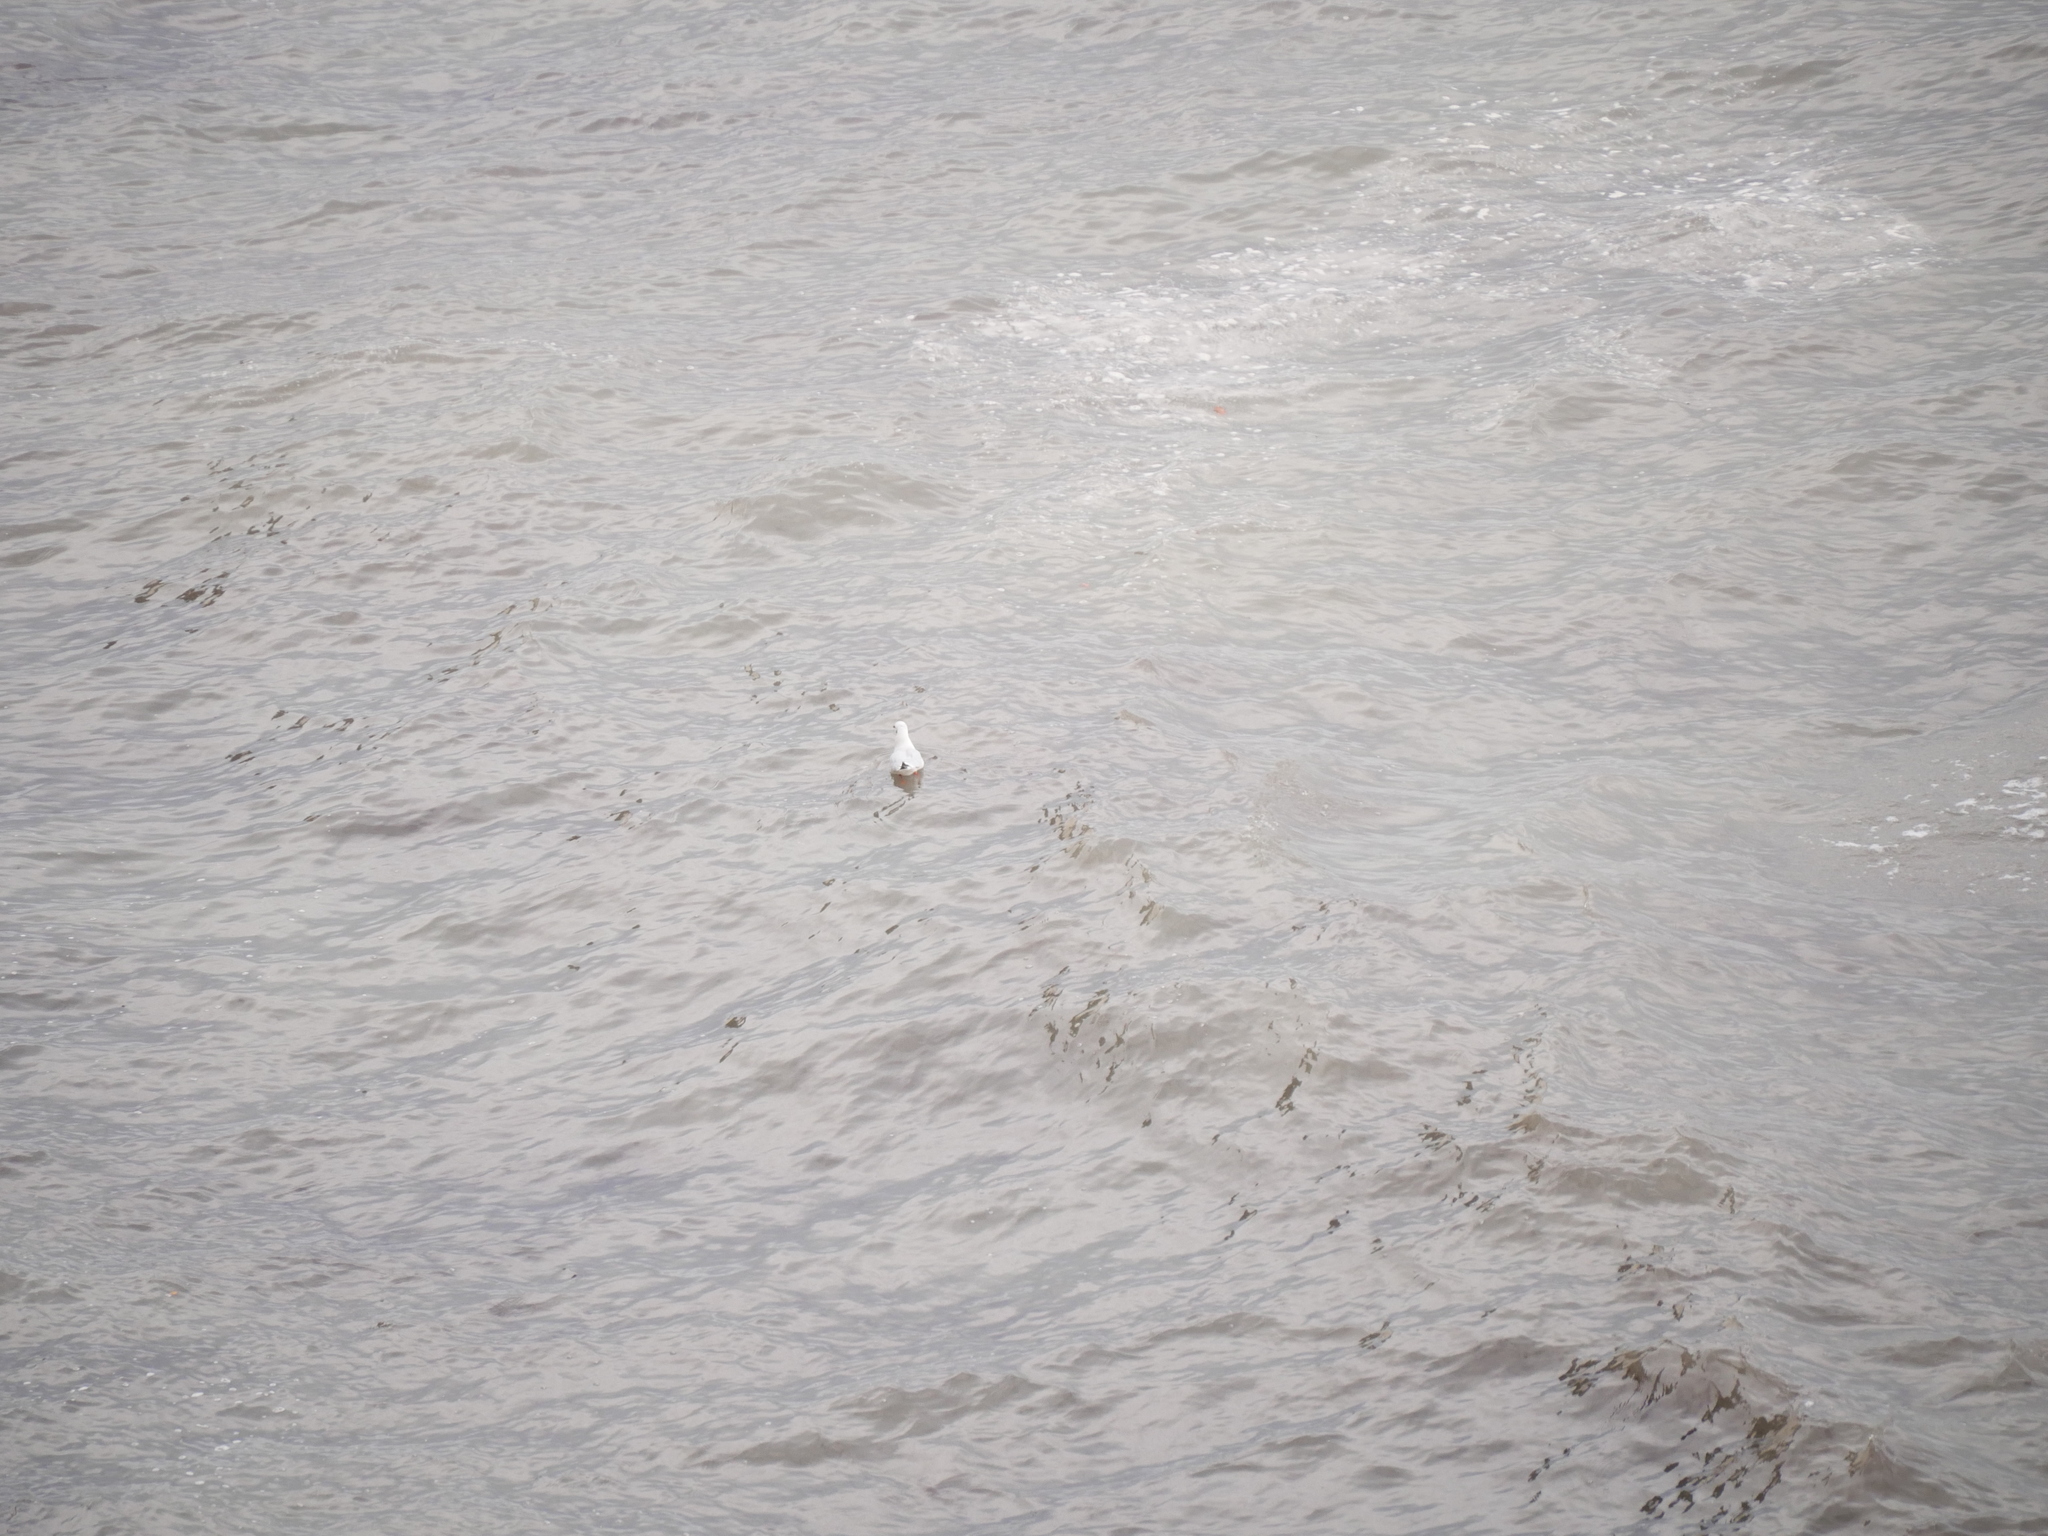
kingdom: Animalia
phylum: Chordata
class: Aves
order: Charadriiformes
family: Laridae
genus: Chroicocephalus
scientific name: Chroicocephalus ridibundus
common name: Black-headed gull
